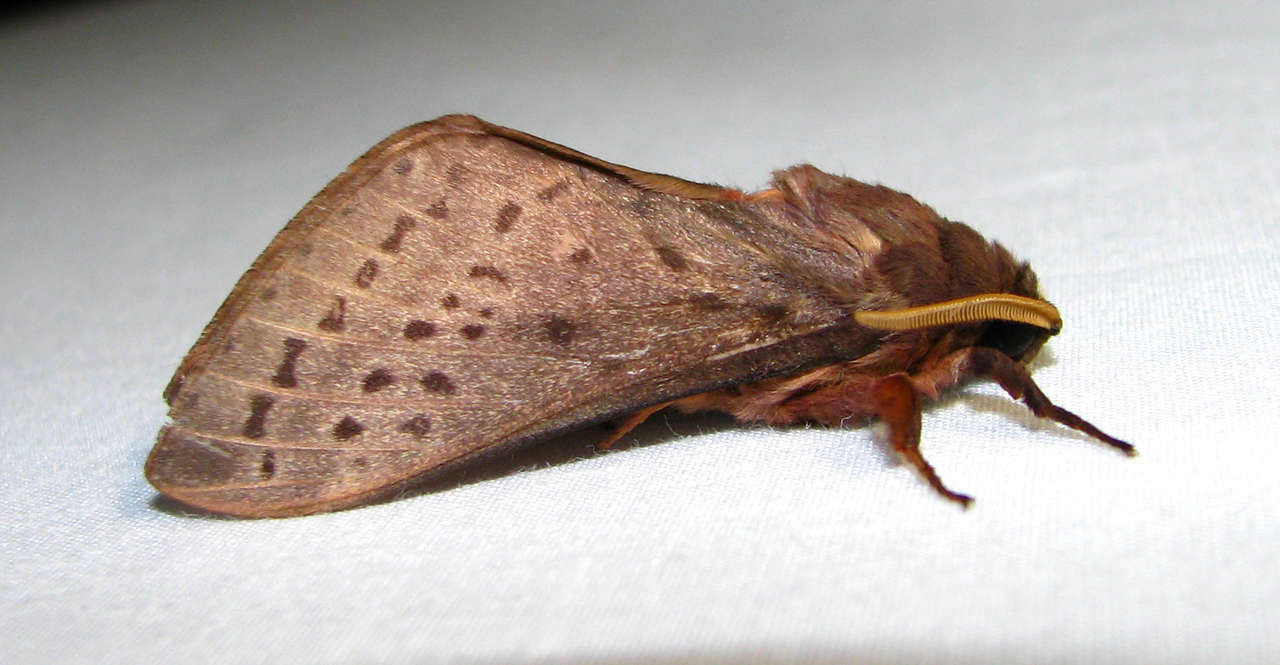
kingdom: Animalia
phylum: Arthropoda
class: Insecta
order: Lepidoptera
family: Hepialidae
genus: Oxycanus
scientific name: Oxycanus silvanus
